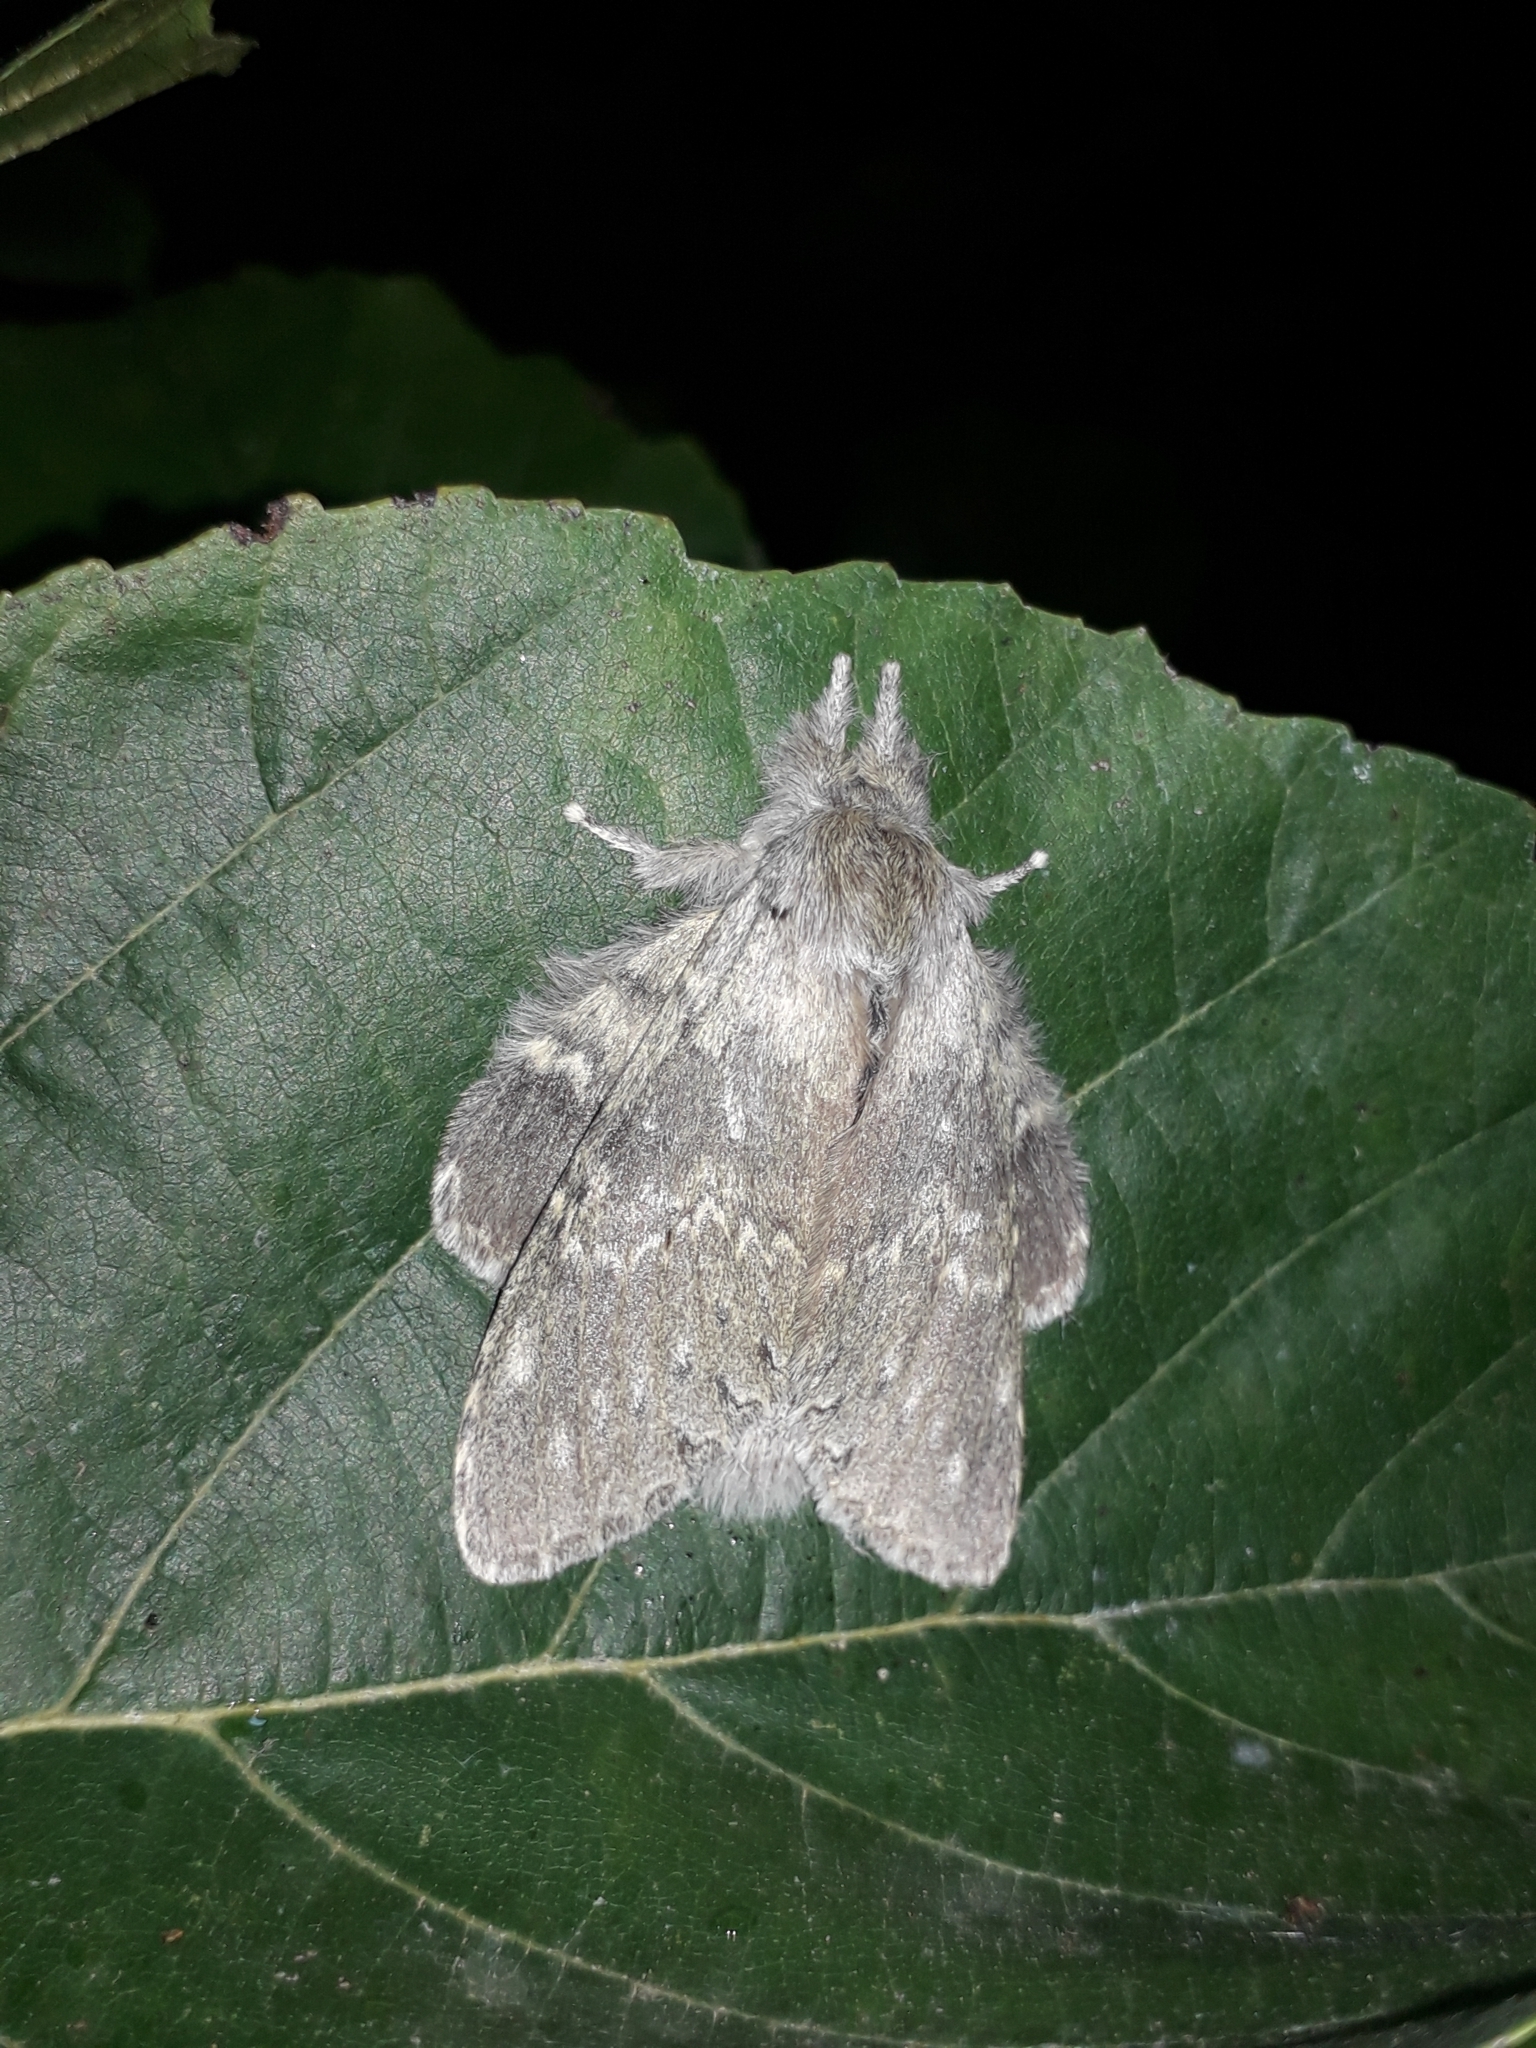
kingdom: Animalia
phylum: Arthropoda
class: Insecta
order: Lepidoptera
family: Notodontidae
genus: Stauropus
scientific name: Stauropus fagi
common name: Lobster moth
